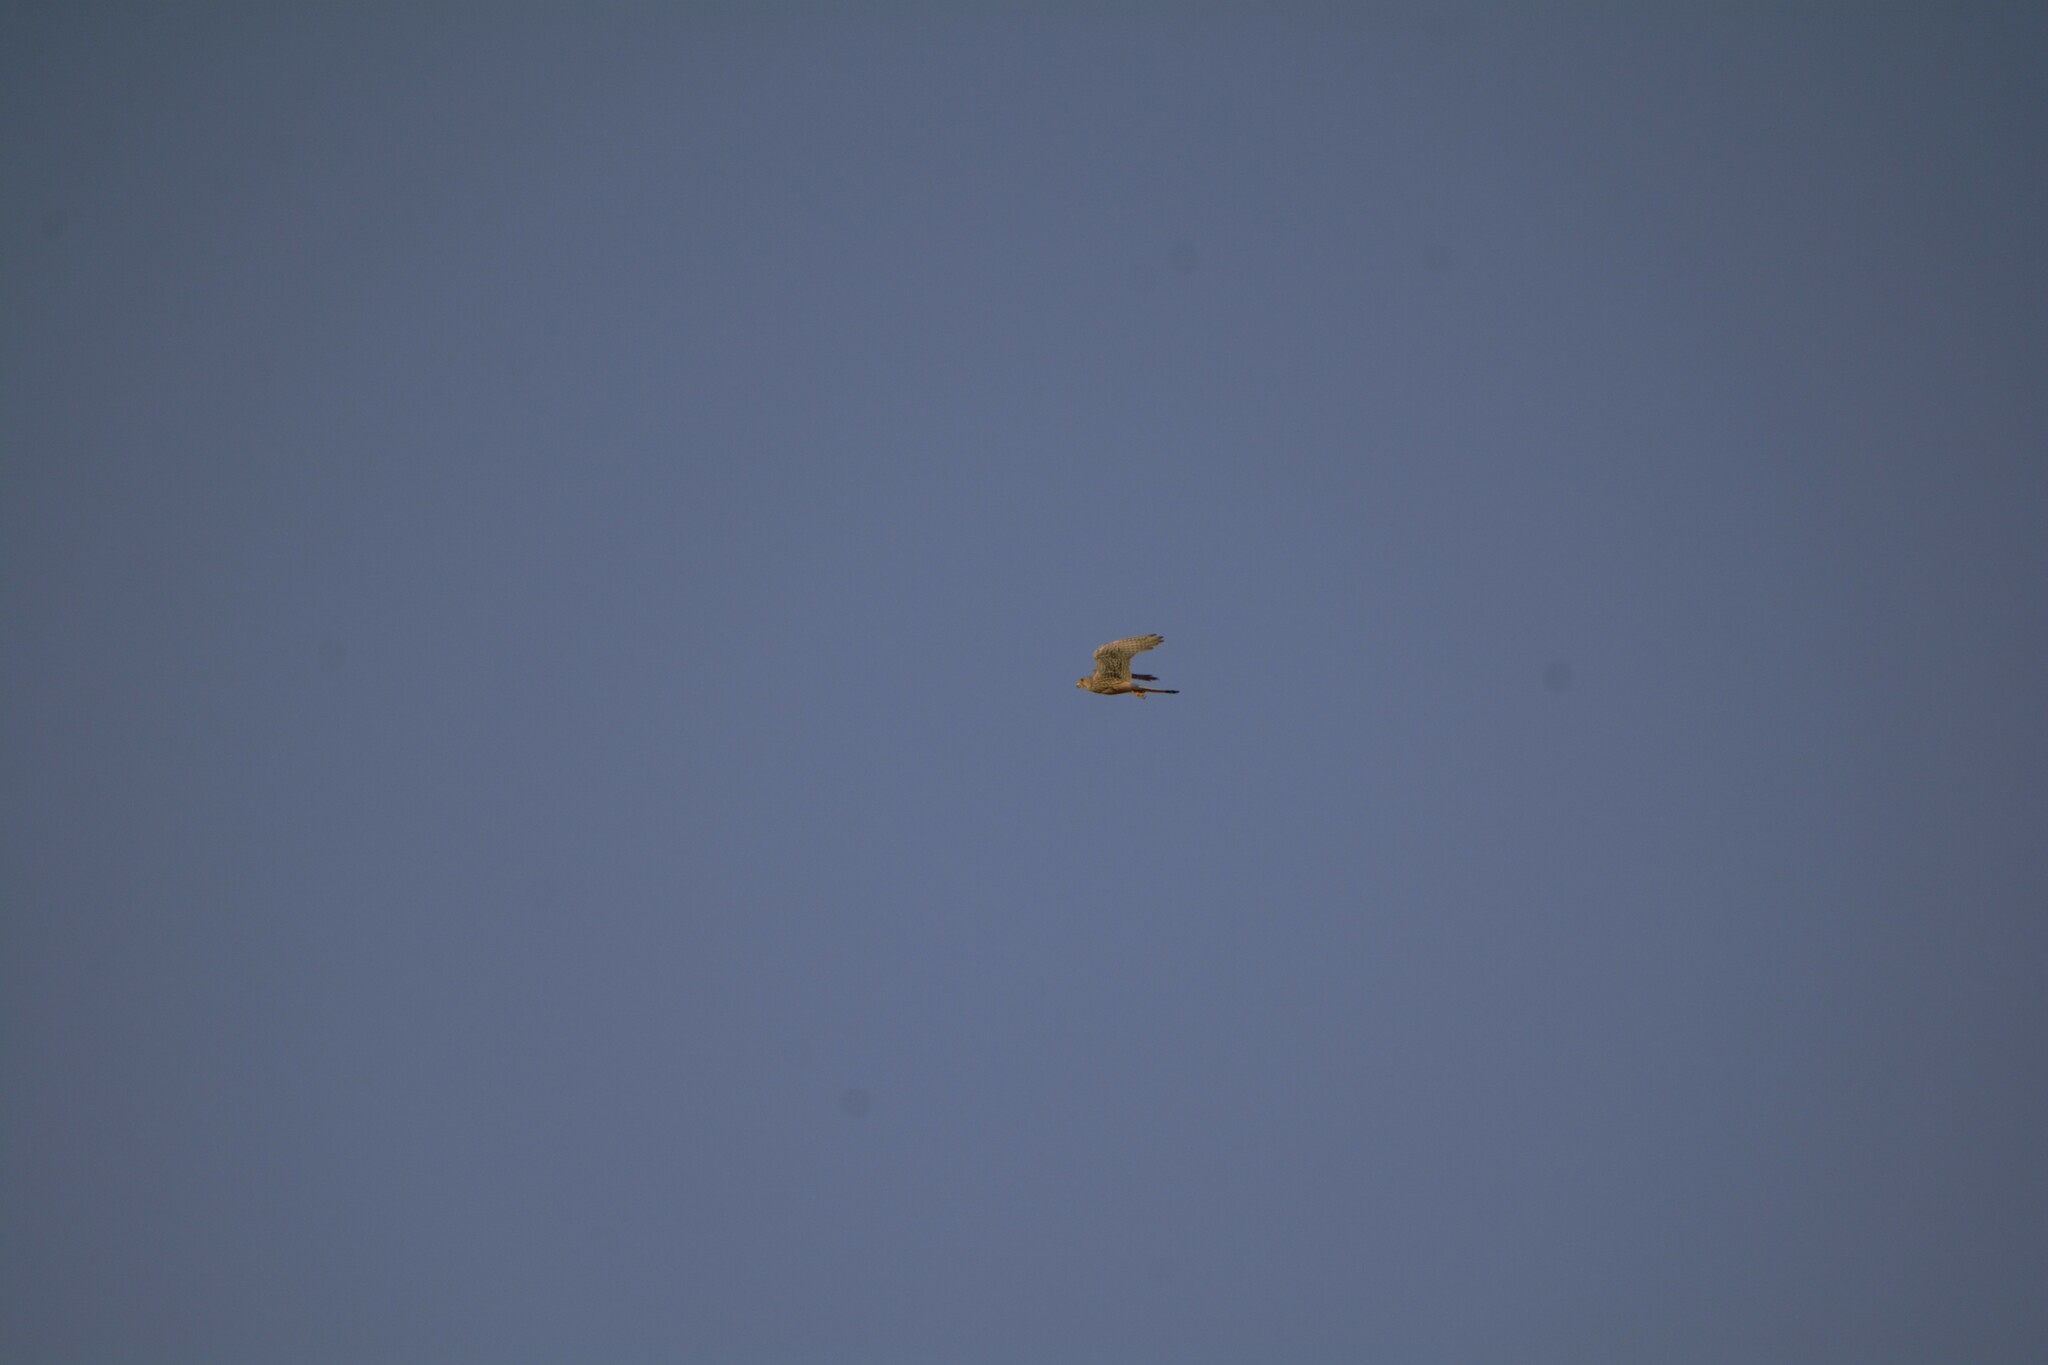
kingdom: Animalia
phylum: Chordata
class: Aves
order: Falconiformes
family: Falconidae
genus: Falco
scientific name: Falco tinnunculus
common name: Common kestrel
